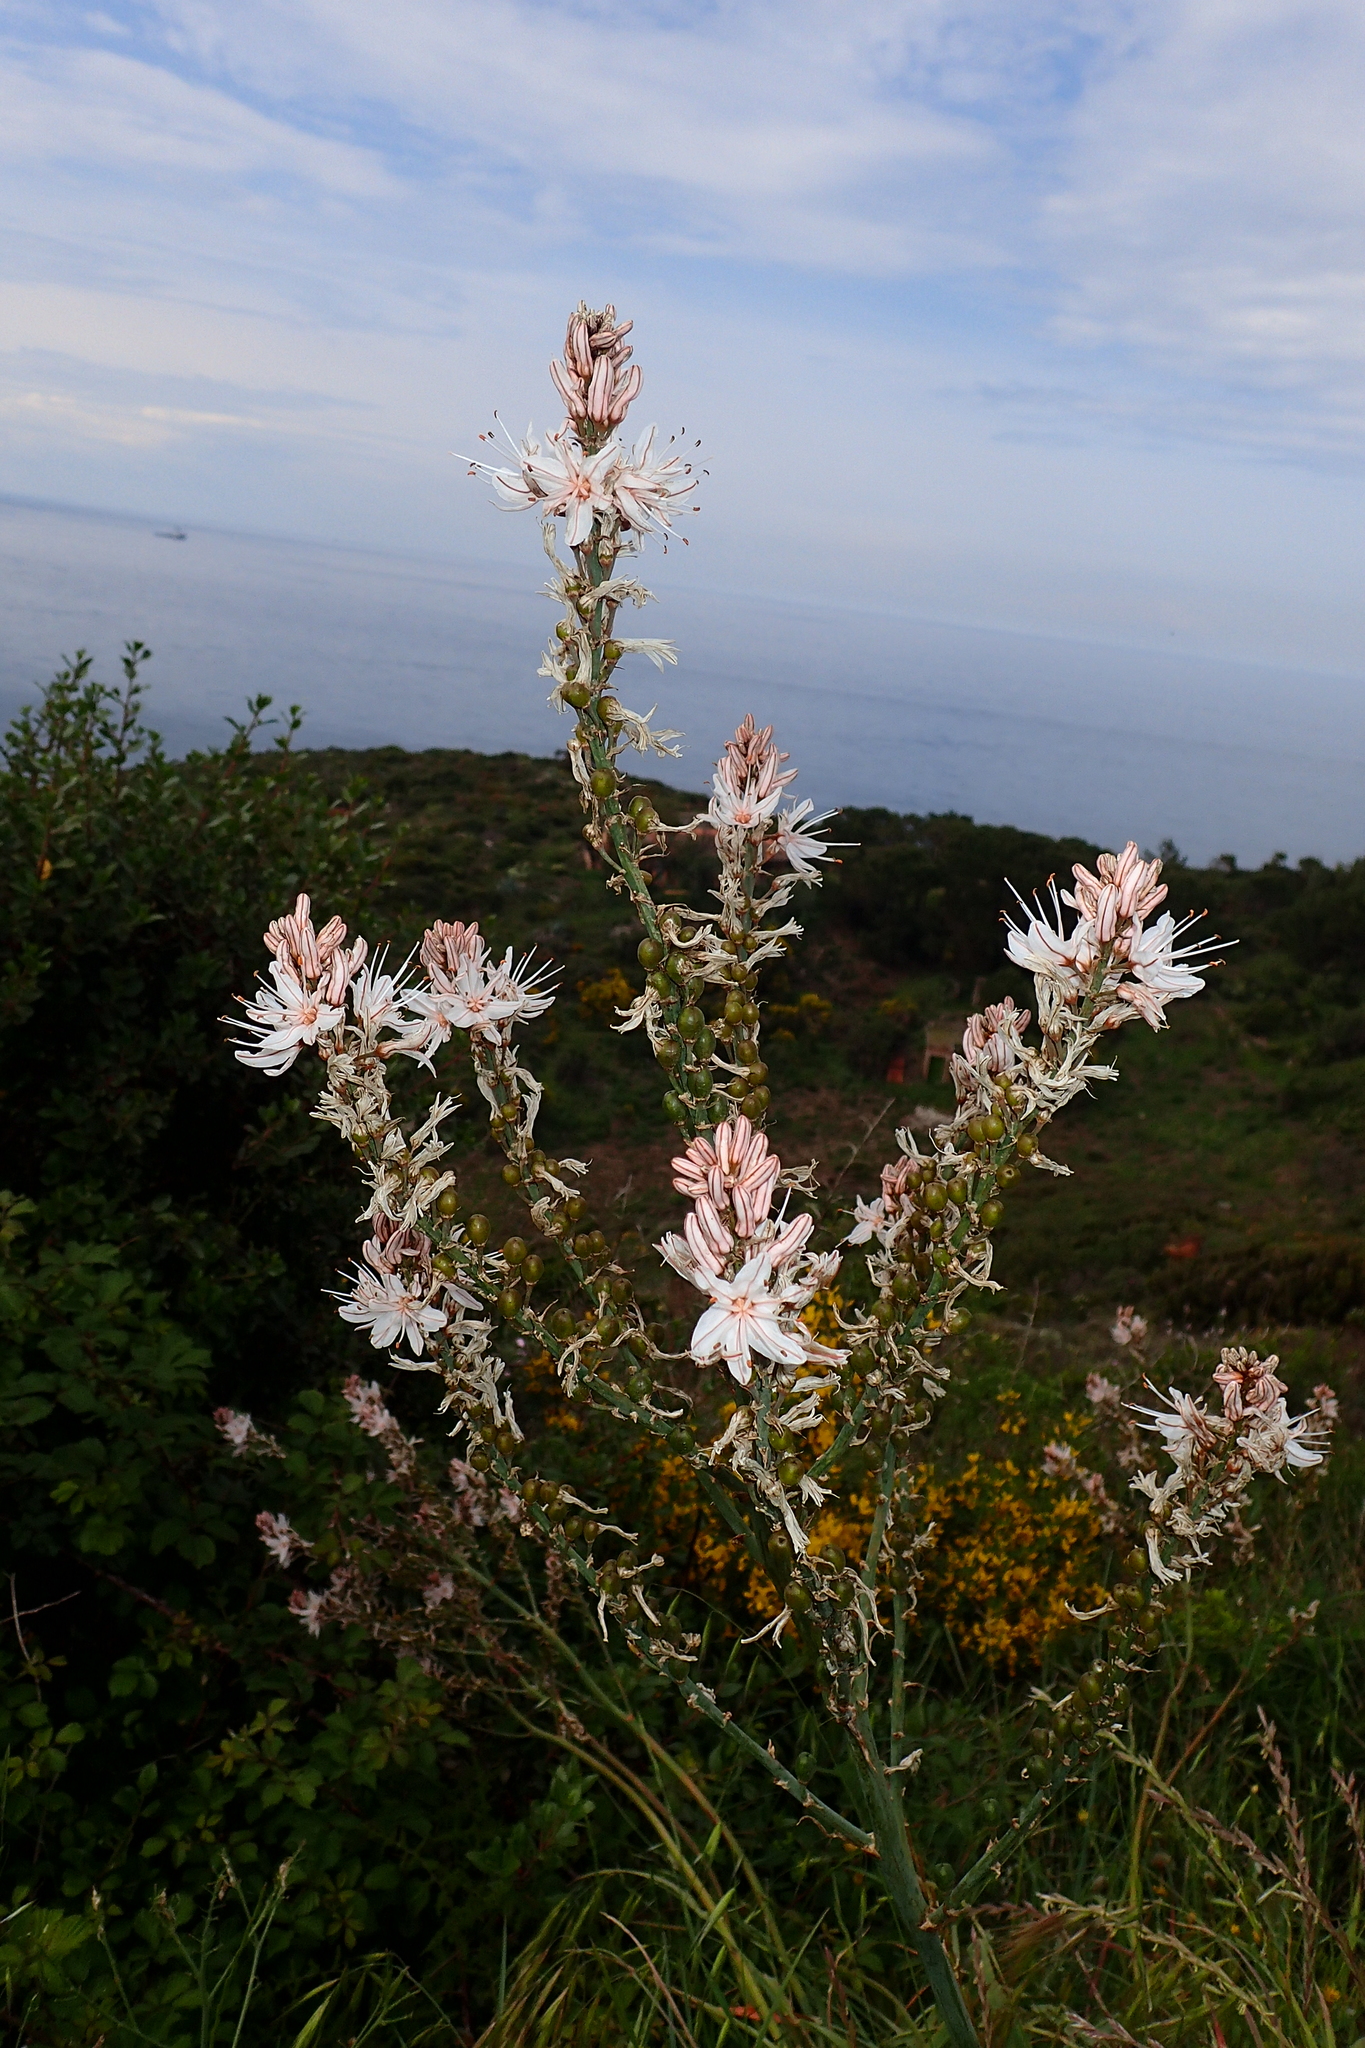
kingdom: Plantae
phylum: Tracheophyta
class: Liliopsida
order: Asparagales
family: Asphodelaceae
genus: Asphodelus
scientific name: Asphodelus ramosus
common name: Silverrod
